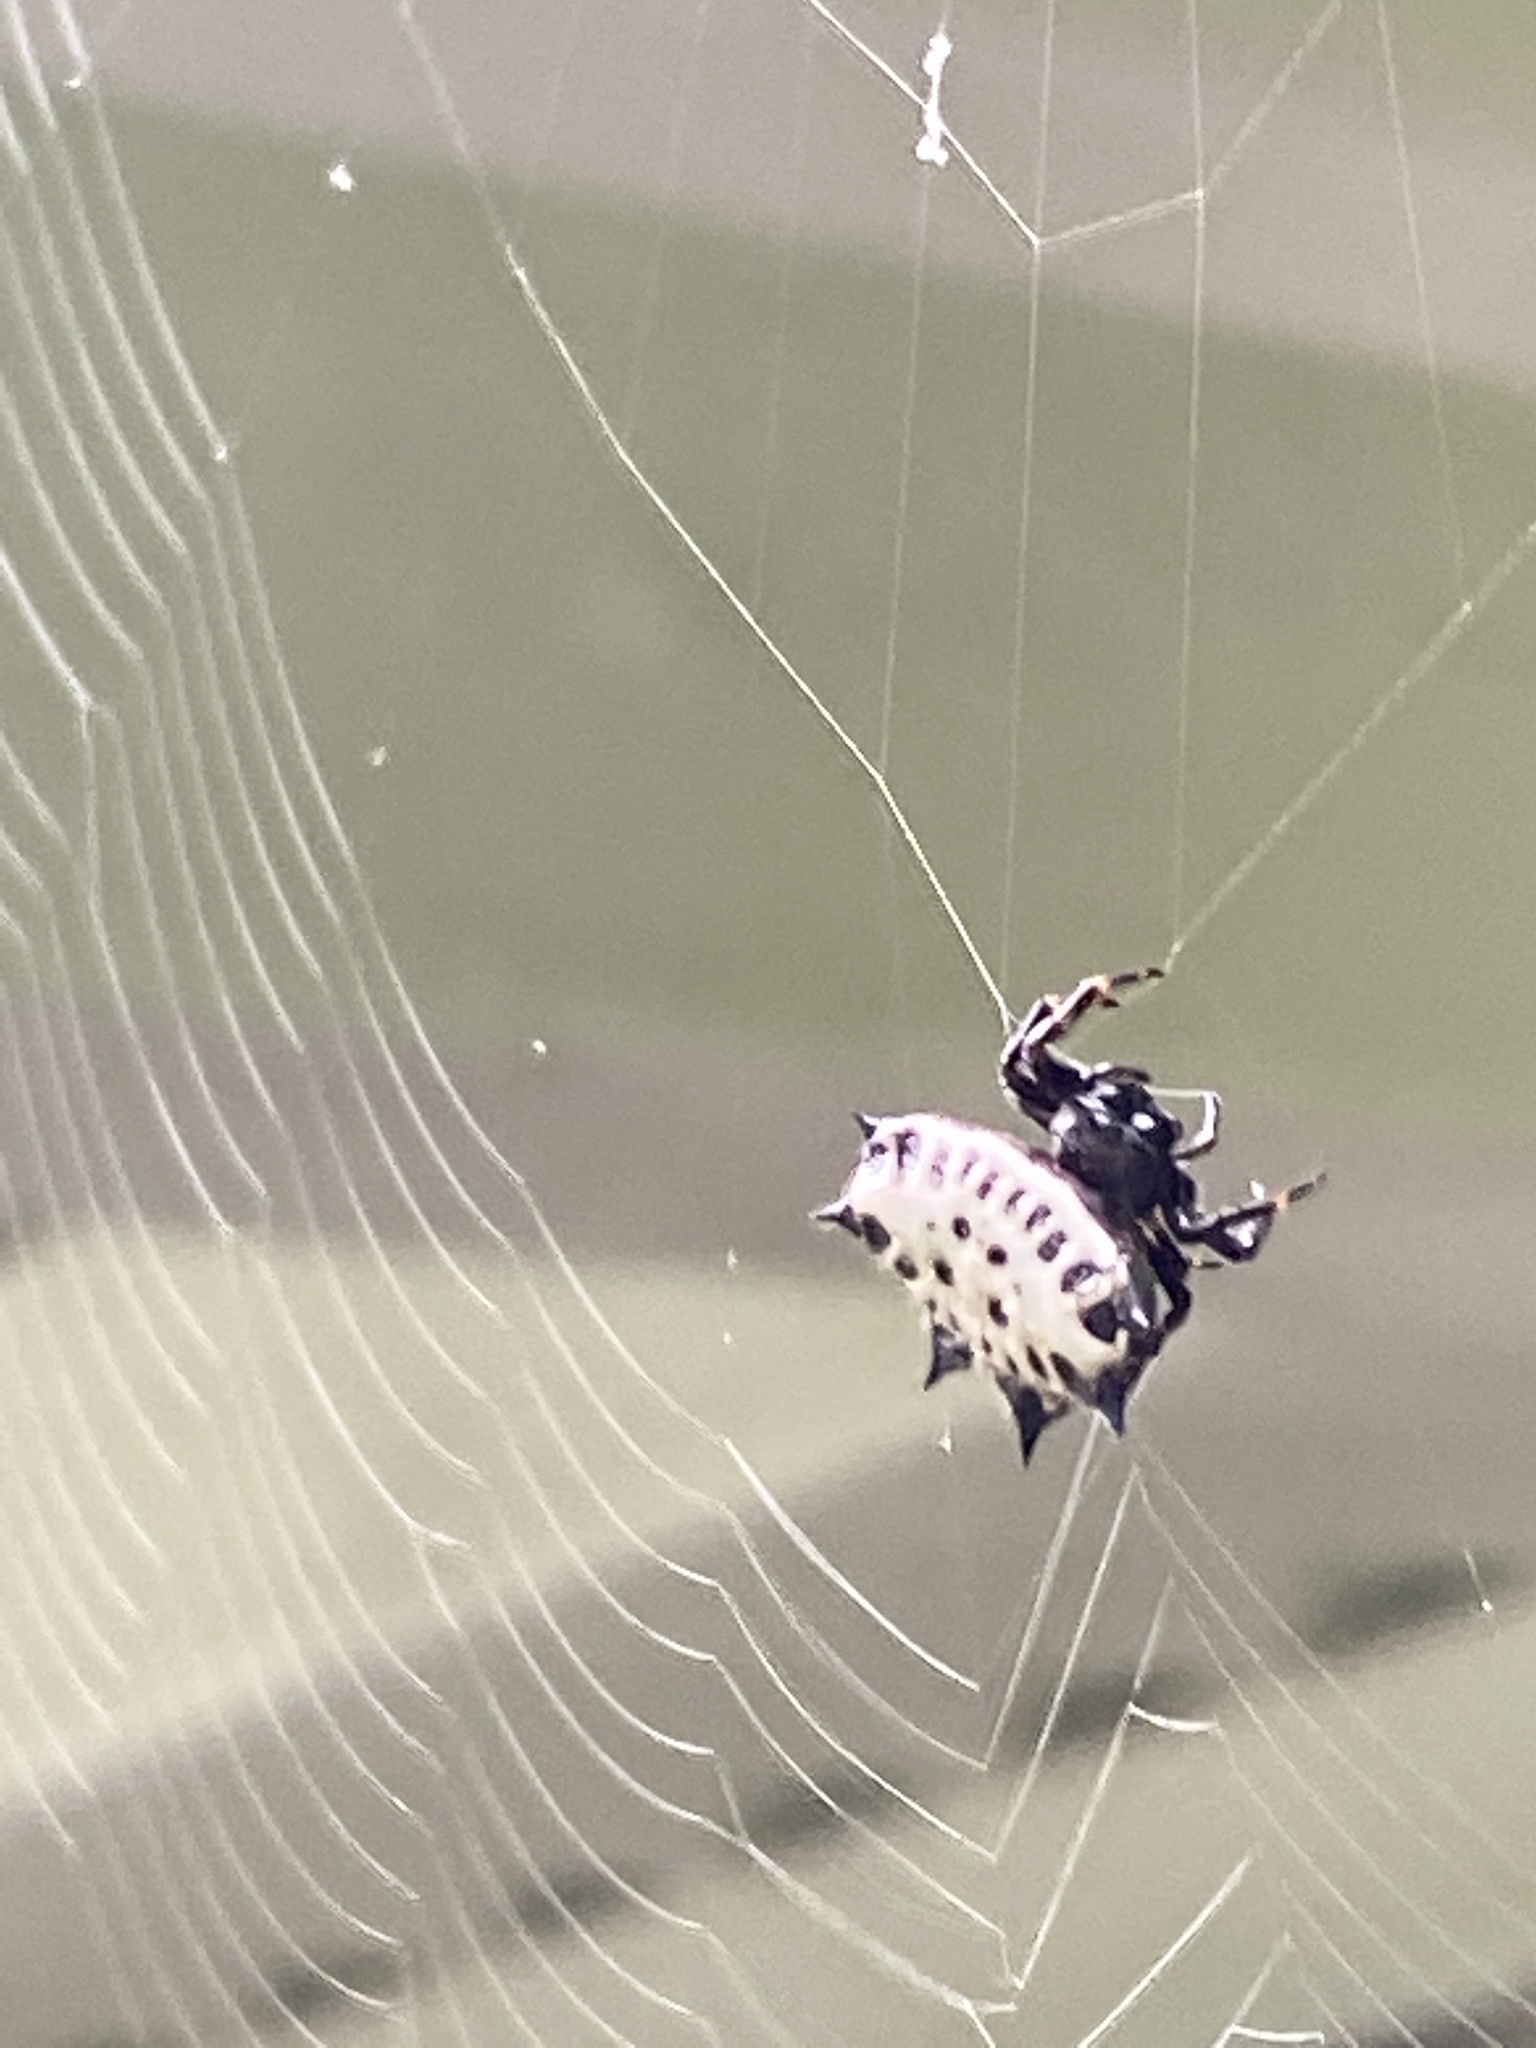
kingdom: Animalia
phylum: Arthropoda
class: Arachnida
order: Araneae
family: Araneidae
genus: Gasteracantha
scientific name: Gasteracantha cancriformis
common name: Orb weavers
